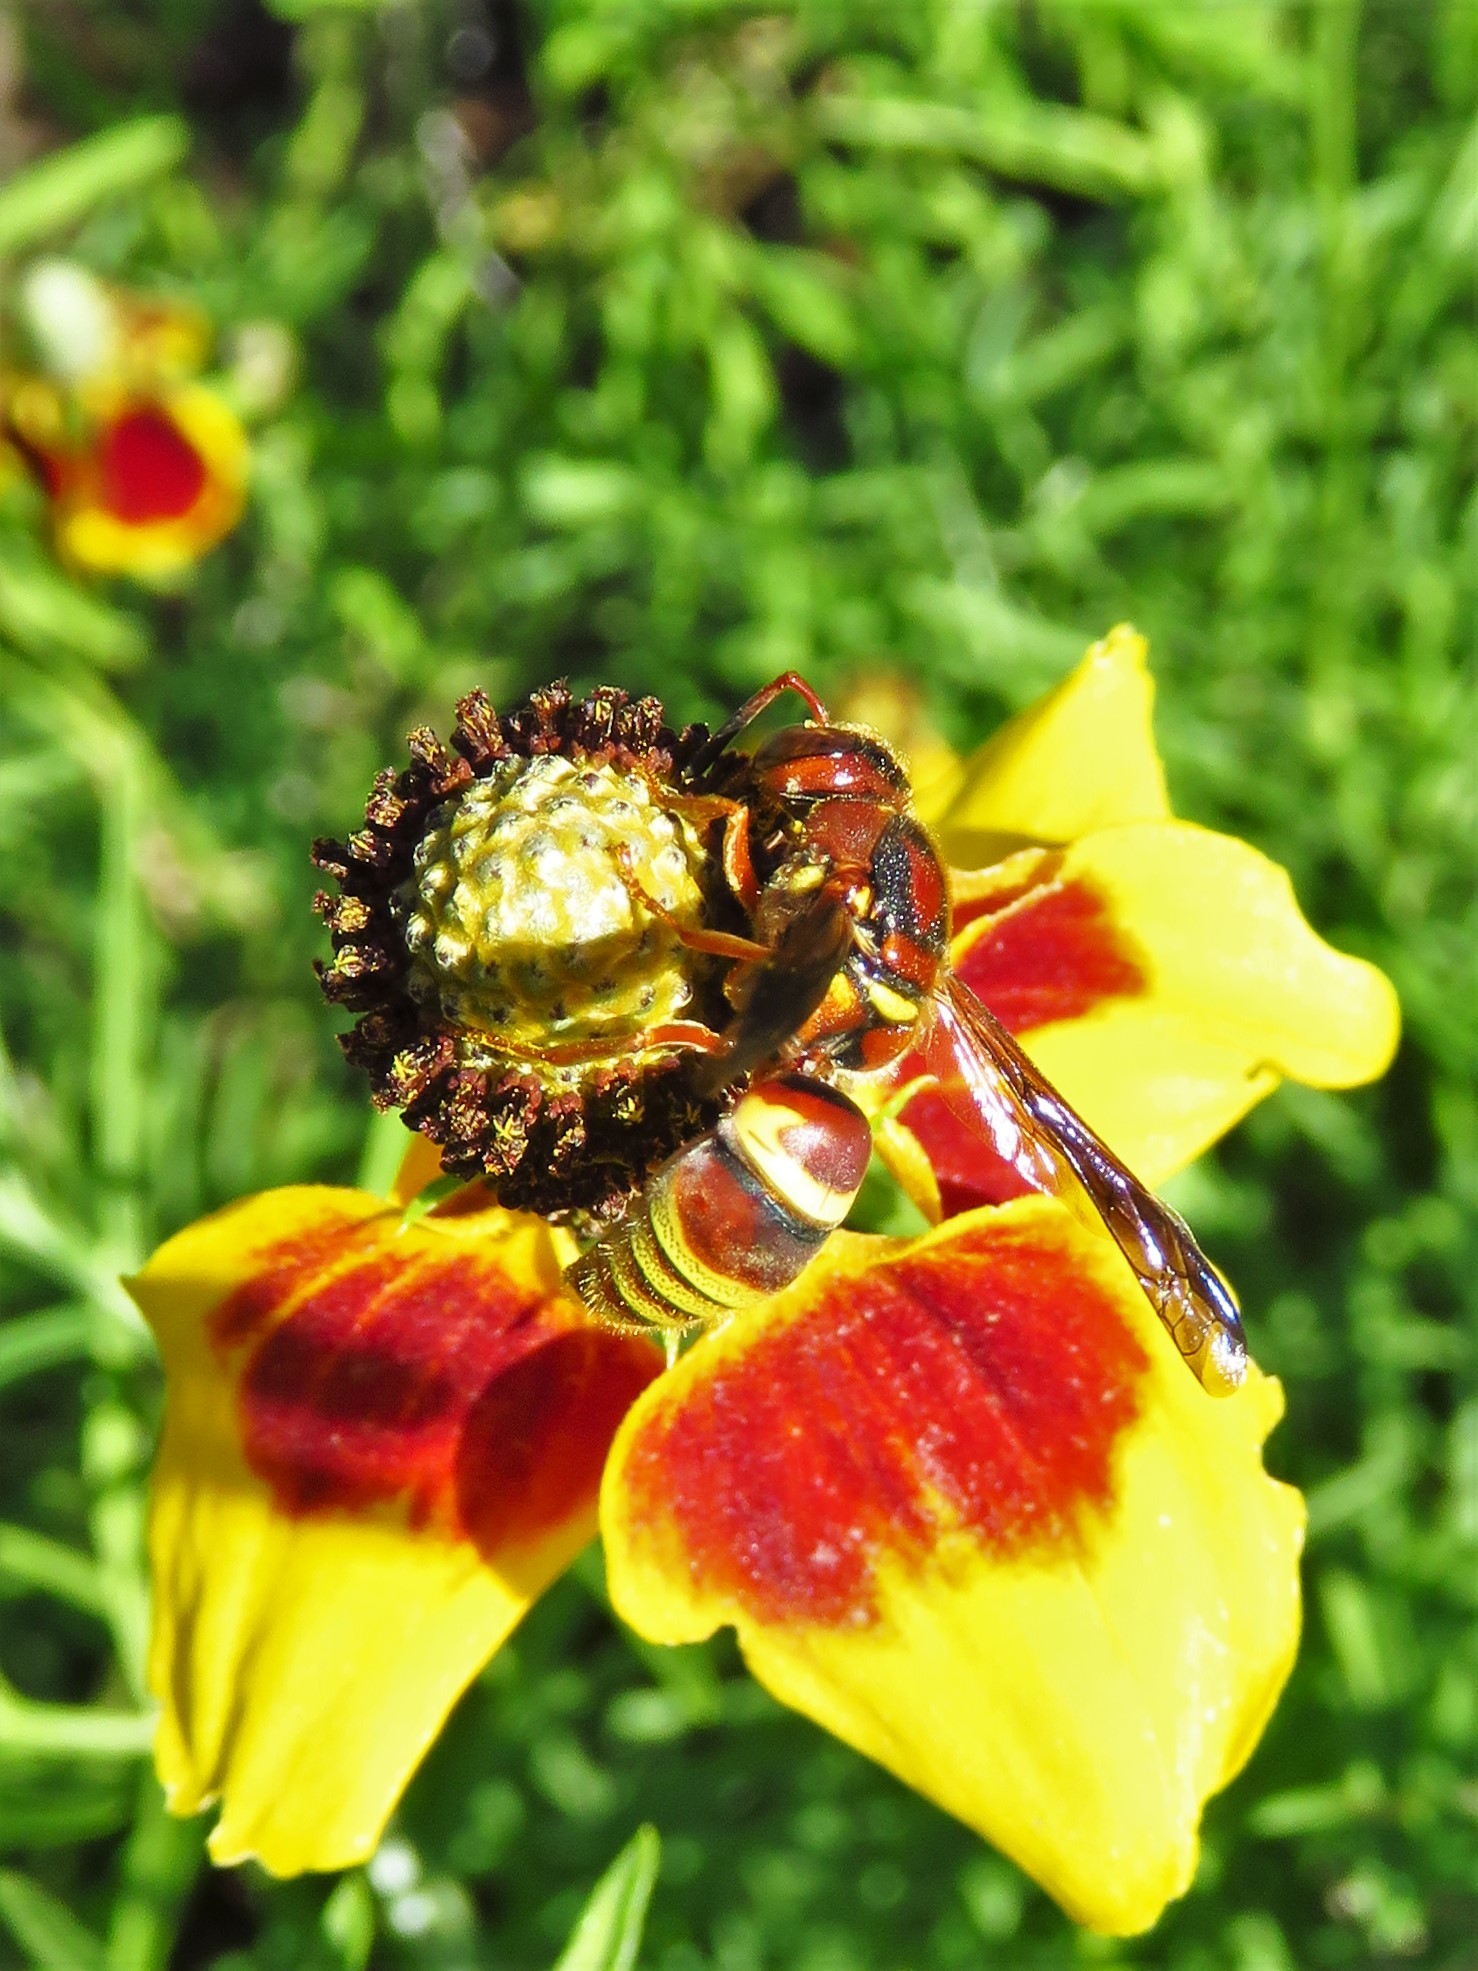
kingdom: Animalia
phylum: Arthropoda
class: Insecta
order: Hymenoptera
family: Eumenidae
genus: Euodynerus
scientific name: Euodynerus pratensis
